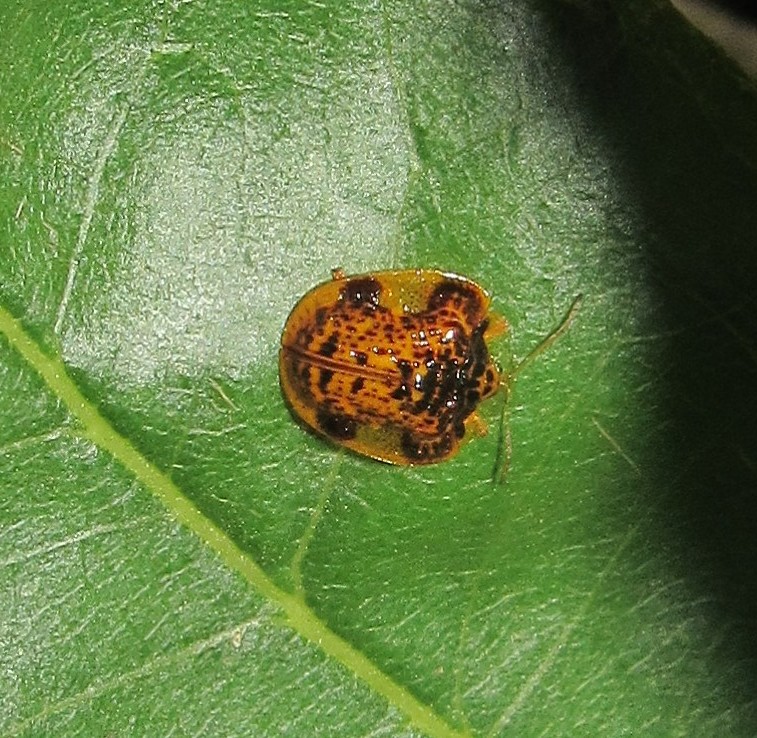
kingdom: Animalia
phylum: Arthropoda
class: Insecta
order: Coleoptera
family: Chrysomelidae
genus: Microctenochira
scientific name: Microctenochira optata
